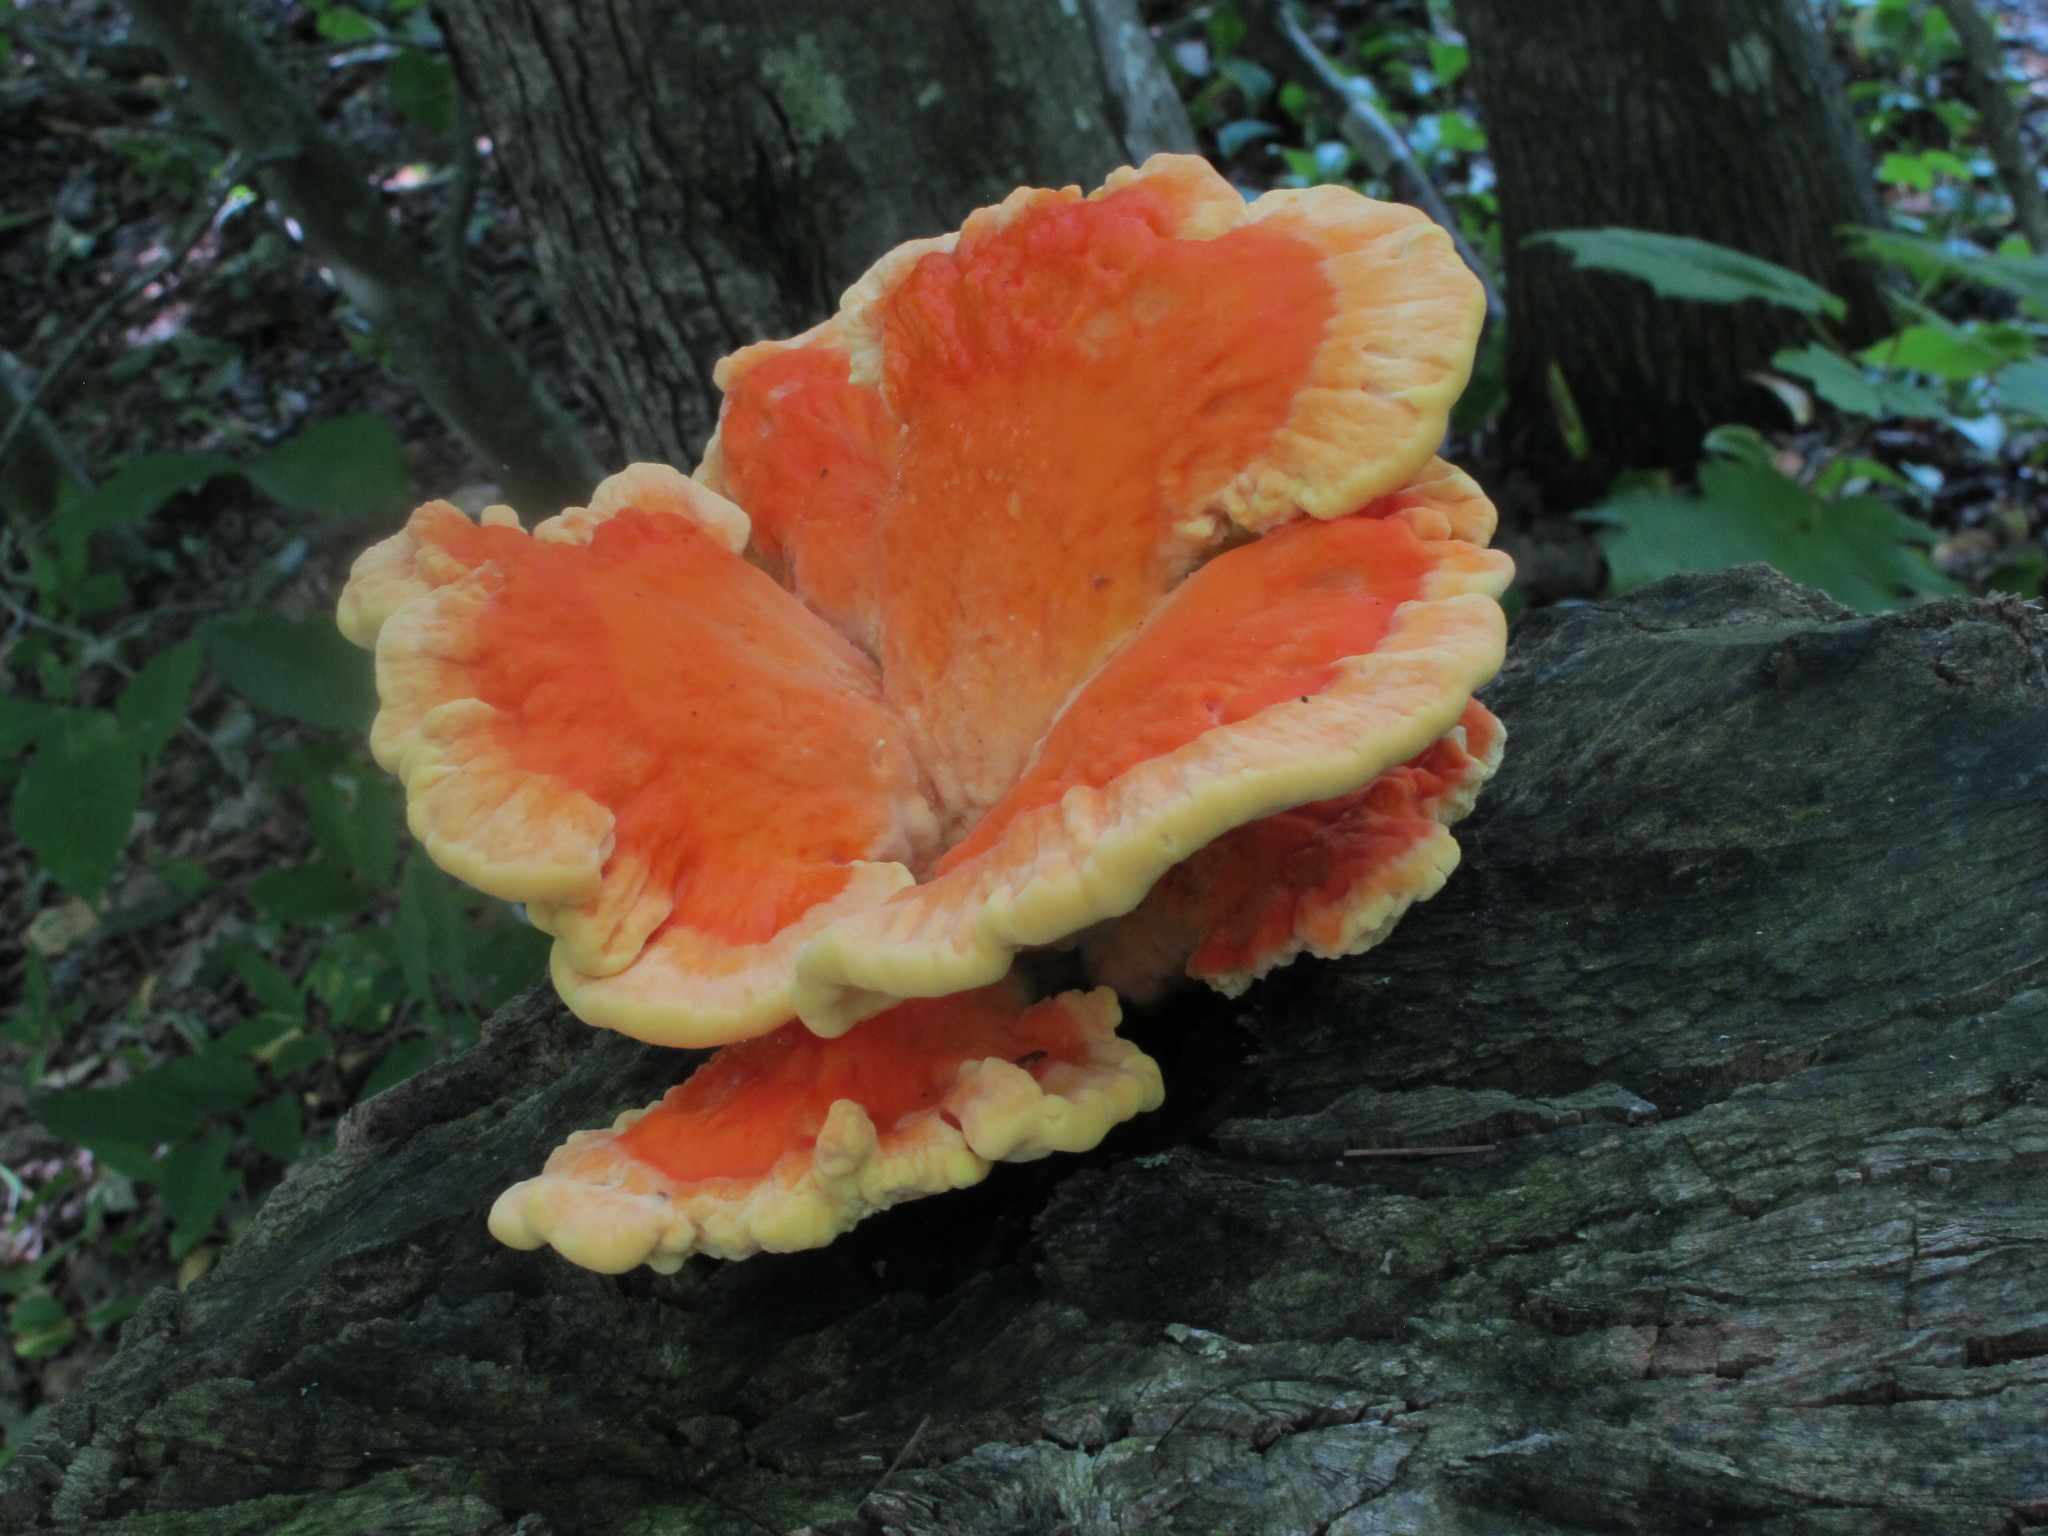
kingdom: Fungi
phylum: Basidiomycota
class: Agaricomycetes
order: Polyporales
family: Laetiporaceae
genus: Laetiporus
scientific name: Laetiporus sulphureus
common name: Chicken of the woods
